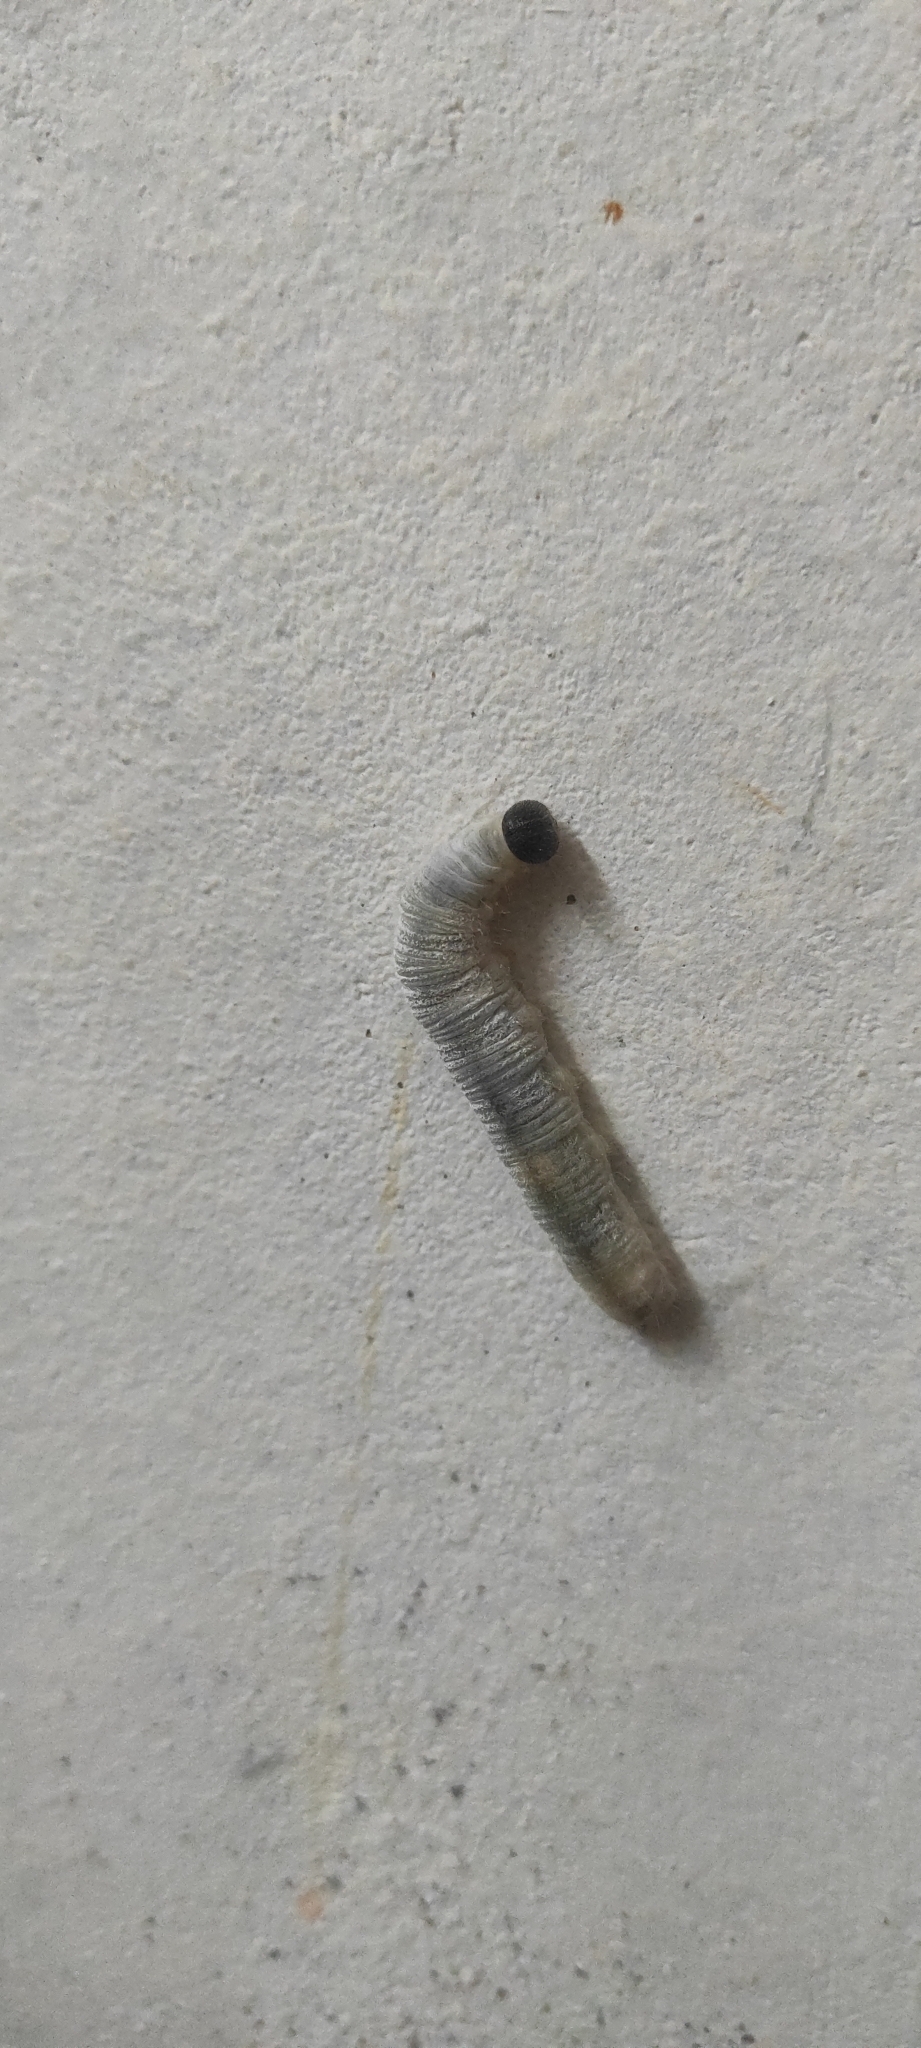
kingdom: Animalia
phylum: Arthropoda
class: Insecta
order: Lepidoptera
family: Hesperiidae
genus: Erionota
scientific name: Erionota torus
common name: Rounded palm-redeye
